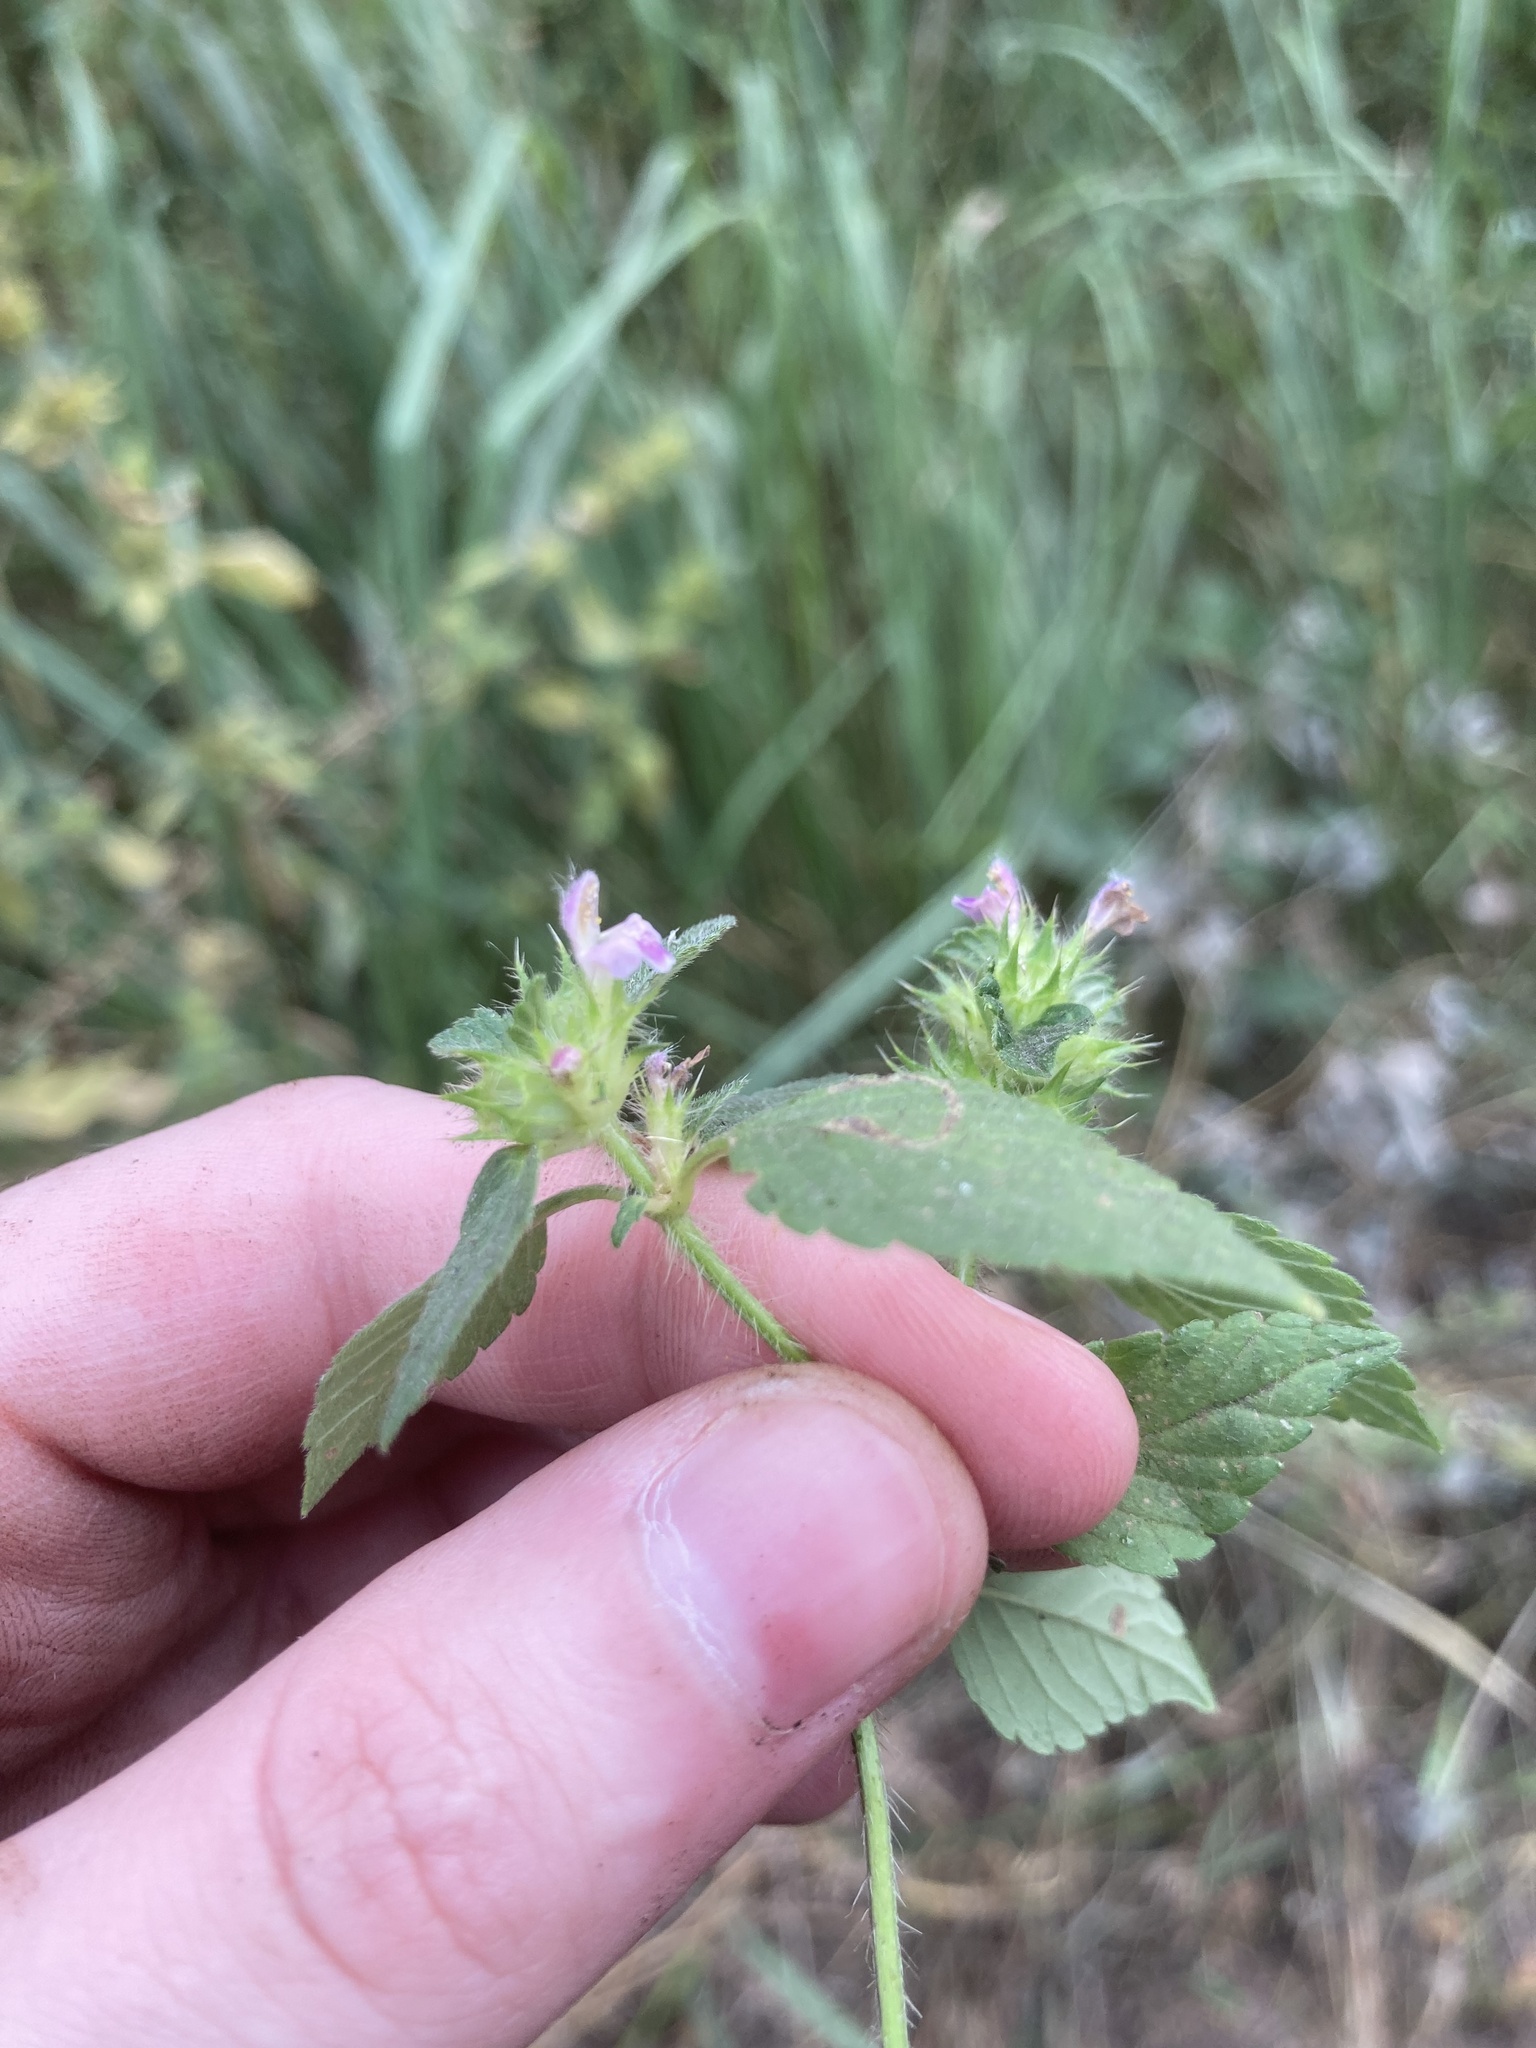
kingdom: Plantae
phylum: Tracheophyta
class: Magnoliopsida
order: Lamiales
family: Lamiaceae
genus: Galeopsis
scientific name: Galeopsis bifida
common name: Bifid hemp-nettle
